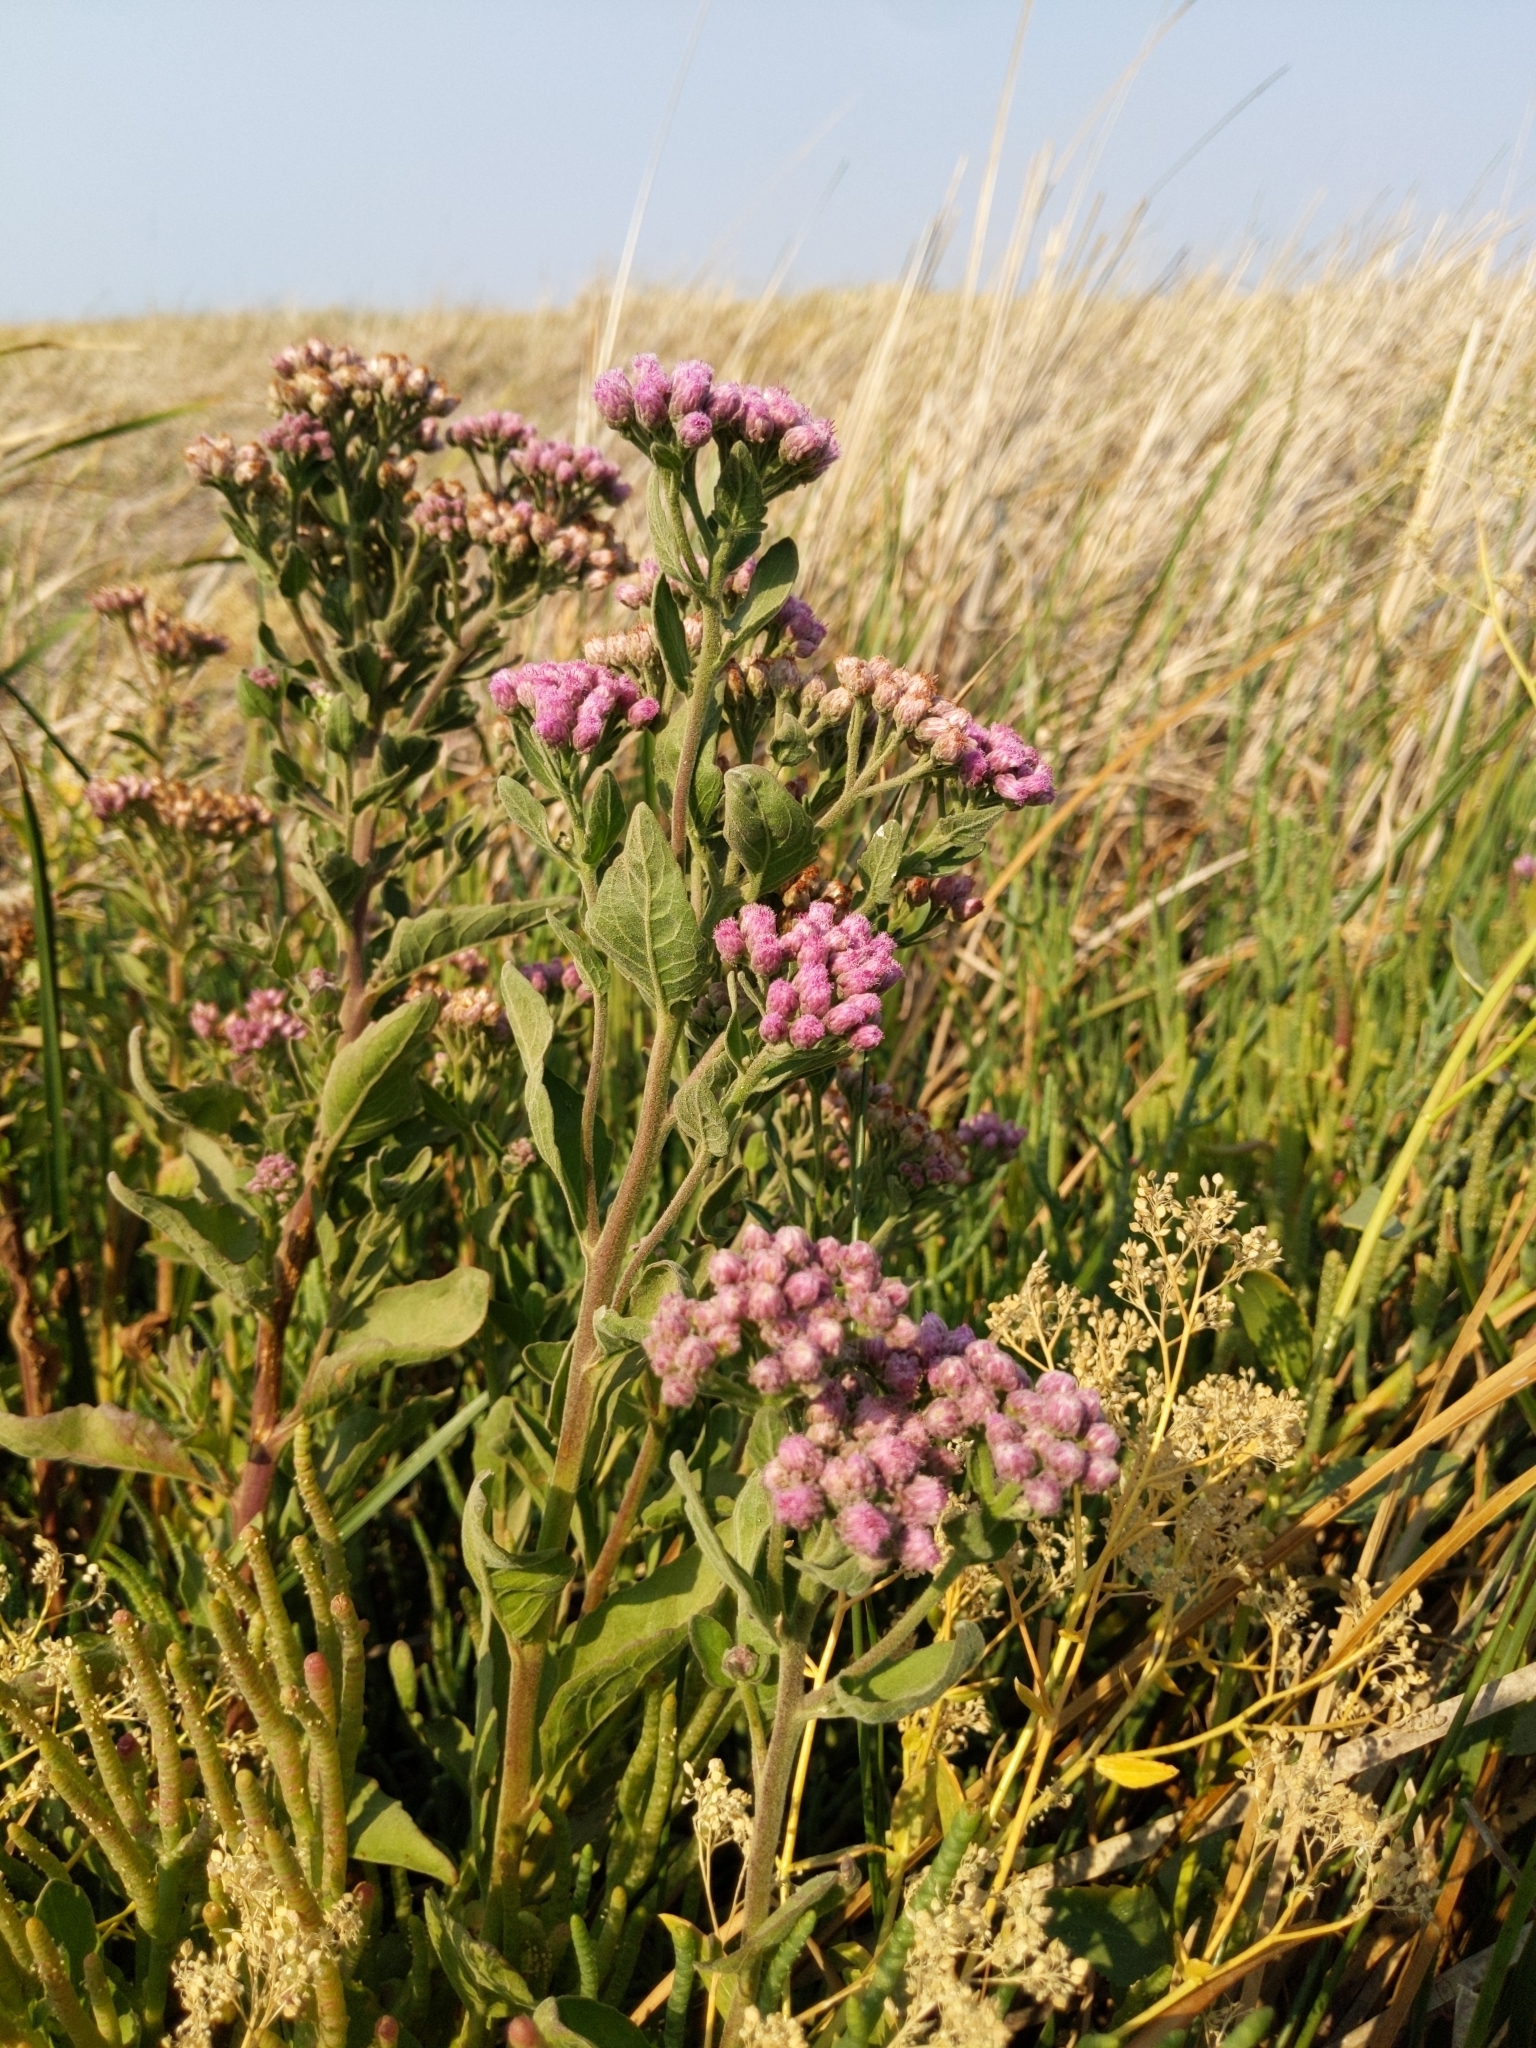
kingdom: Plantae
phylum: Tracheophyta
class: Magnoliopsida
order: Asterales
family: Asteraceae
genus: Pluchea
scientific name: Pluchea odorata
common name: Saltmarsh fleabane
